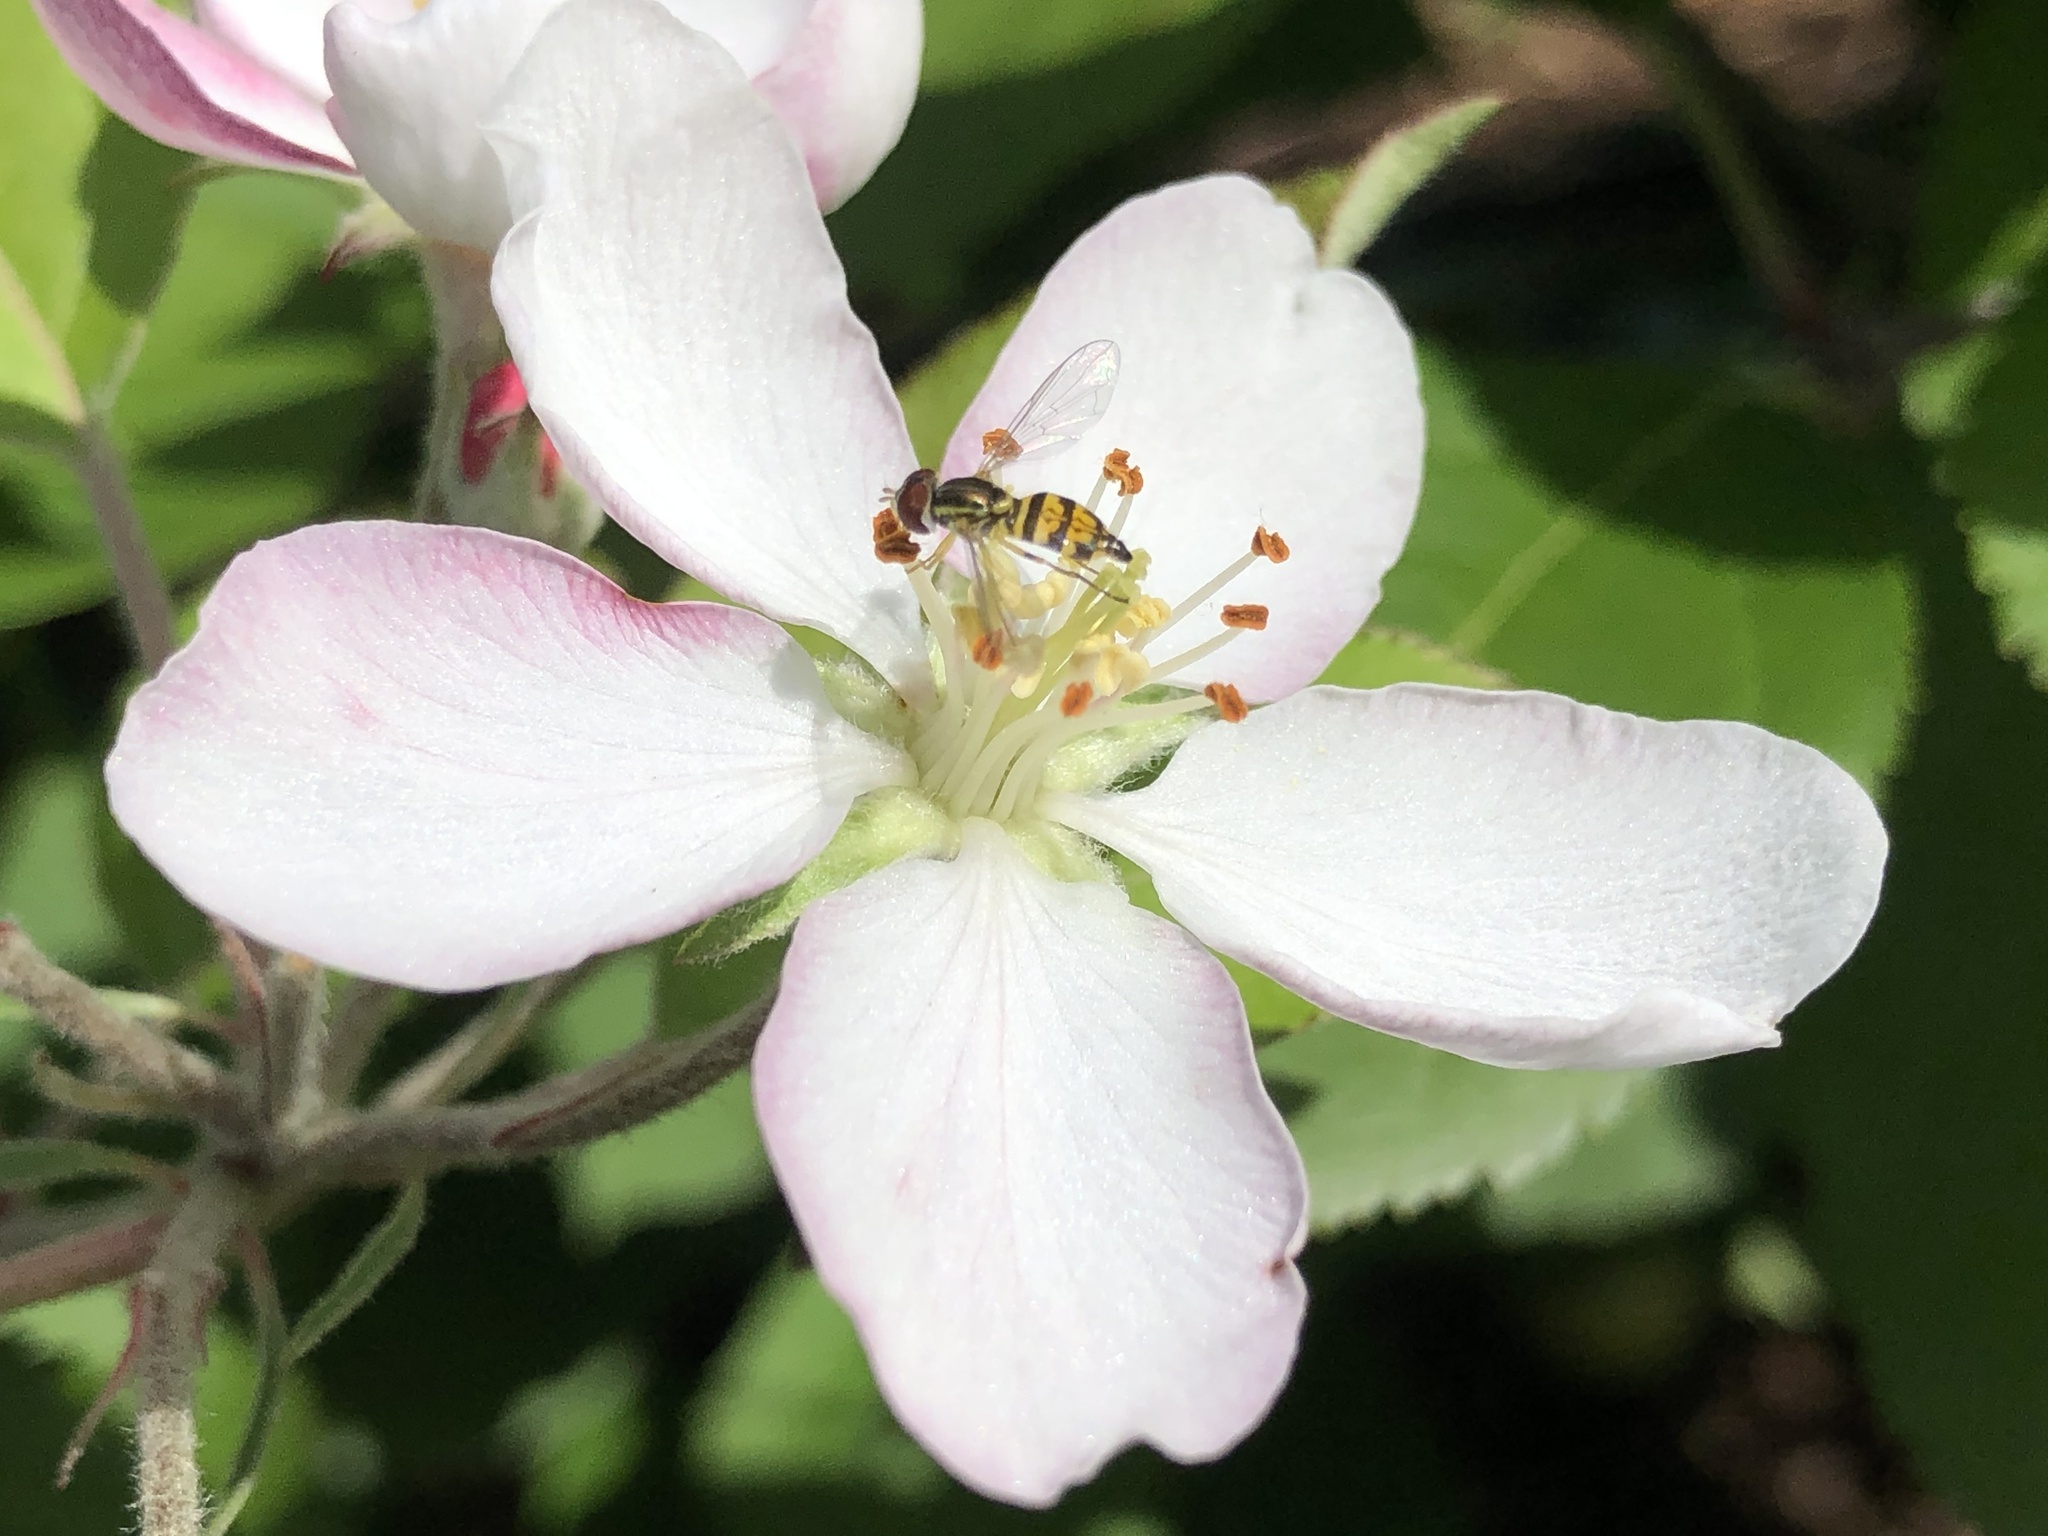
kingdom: Animalia
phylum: Arthropoda
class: Insecta
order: Diptera
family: Syrphidae
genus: Toxomerus
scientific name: Toxomerus geminatus
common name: Eastern calligrapher
